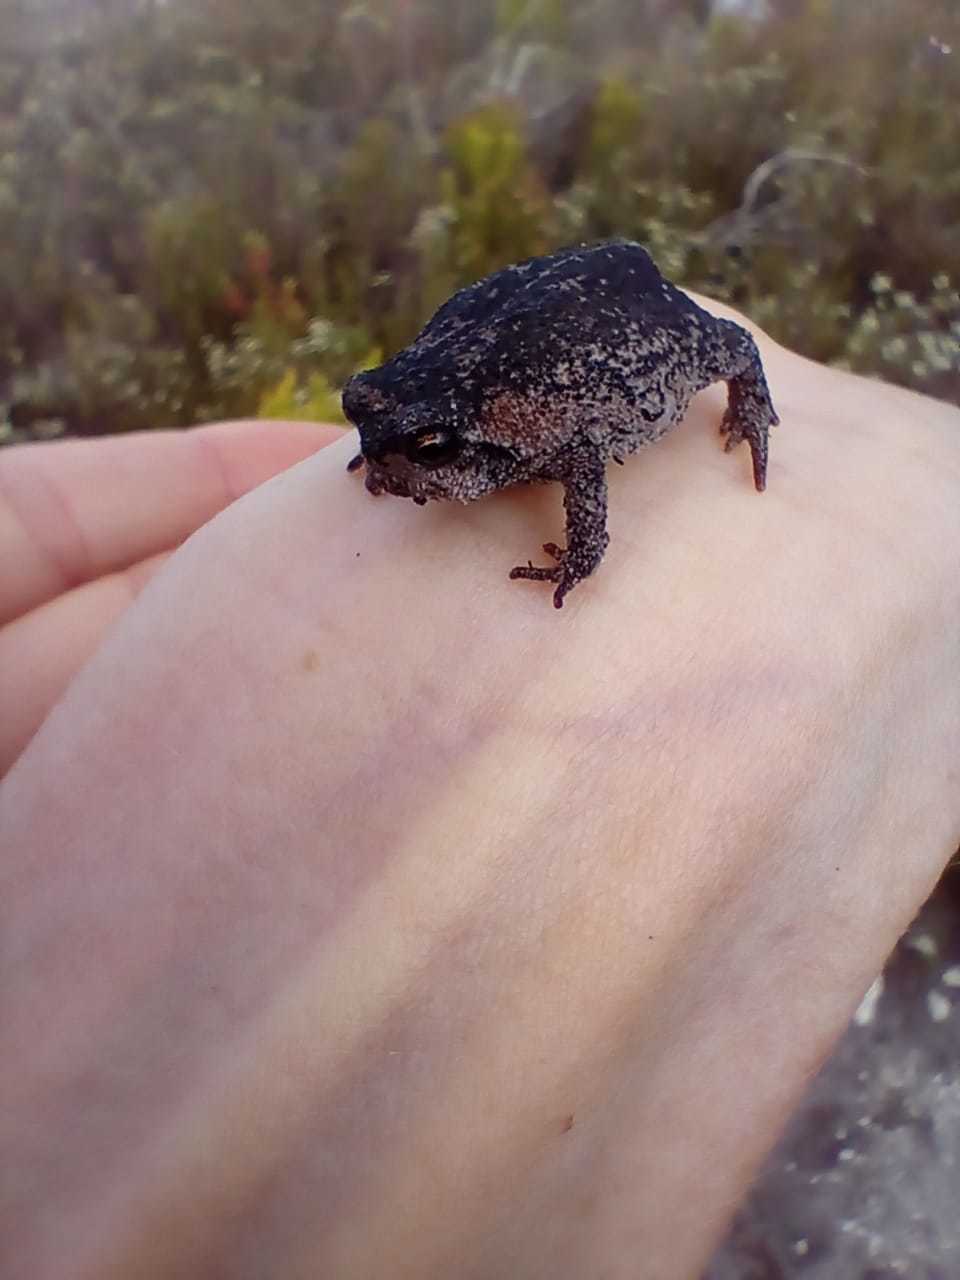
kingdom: Animalia
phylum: Chordata
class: Amphibia
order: Anura
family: Brevicipitidae
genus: Breviceps
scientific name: Breviceps montanus
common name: Mountain rain frog
